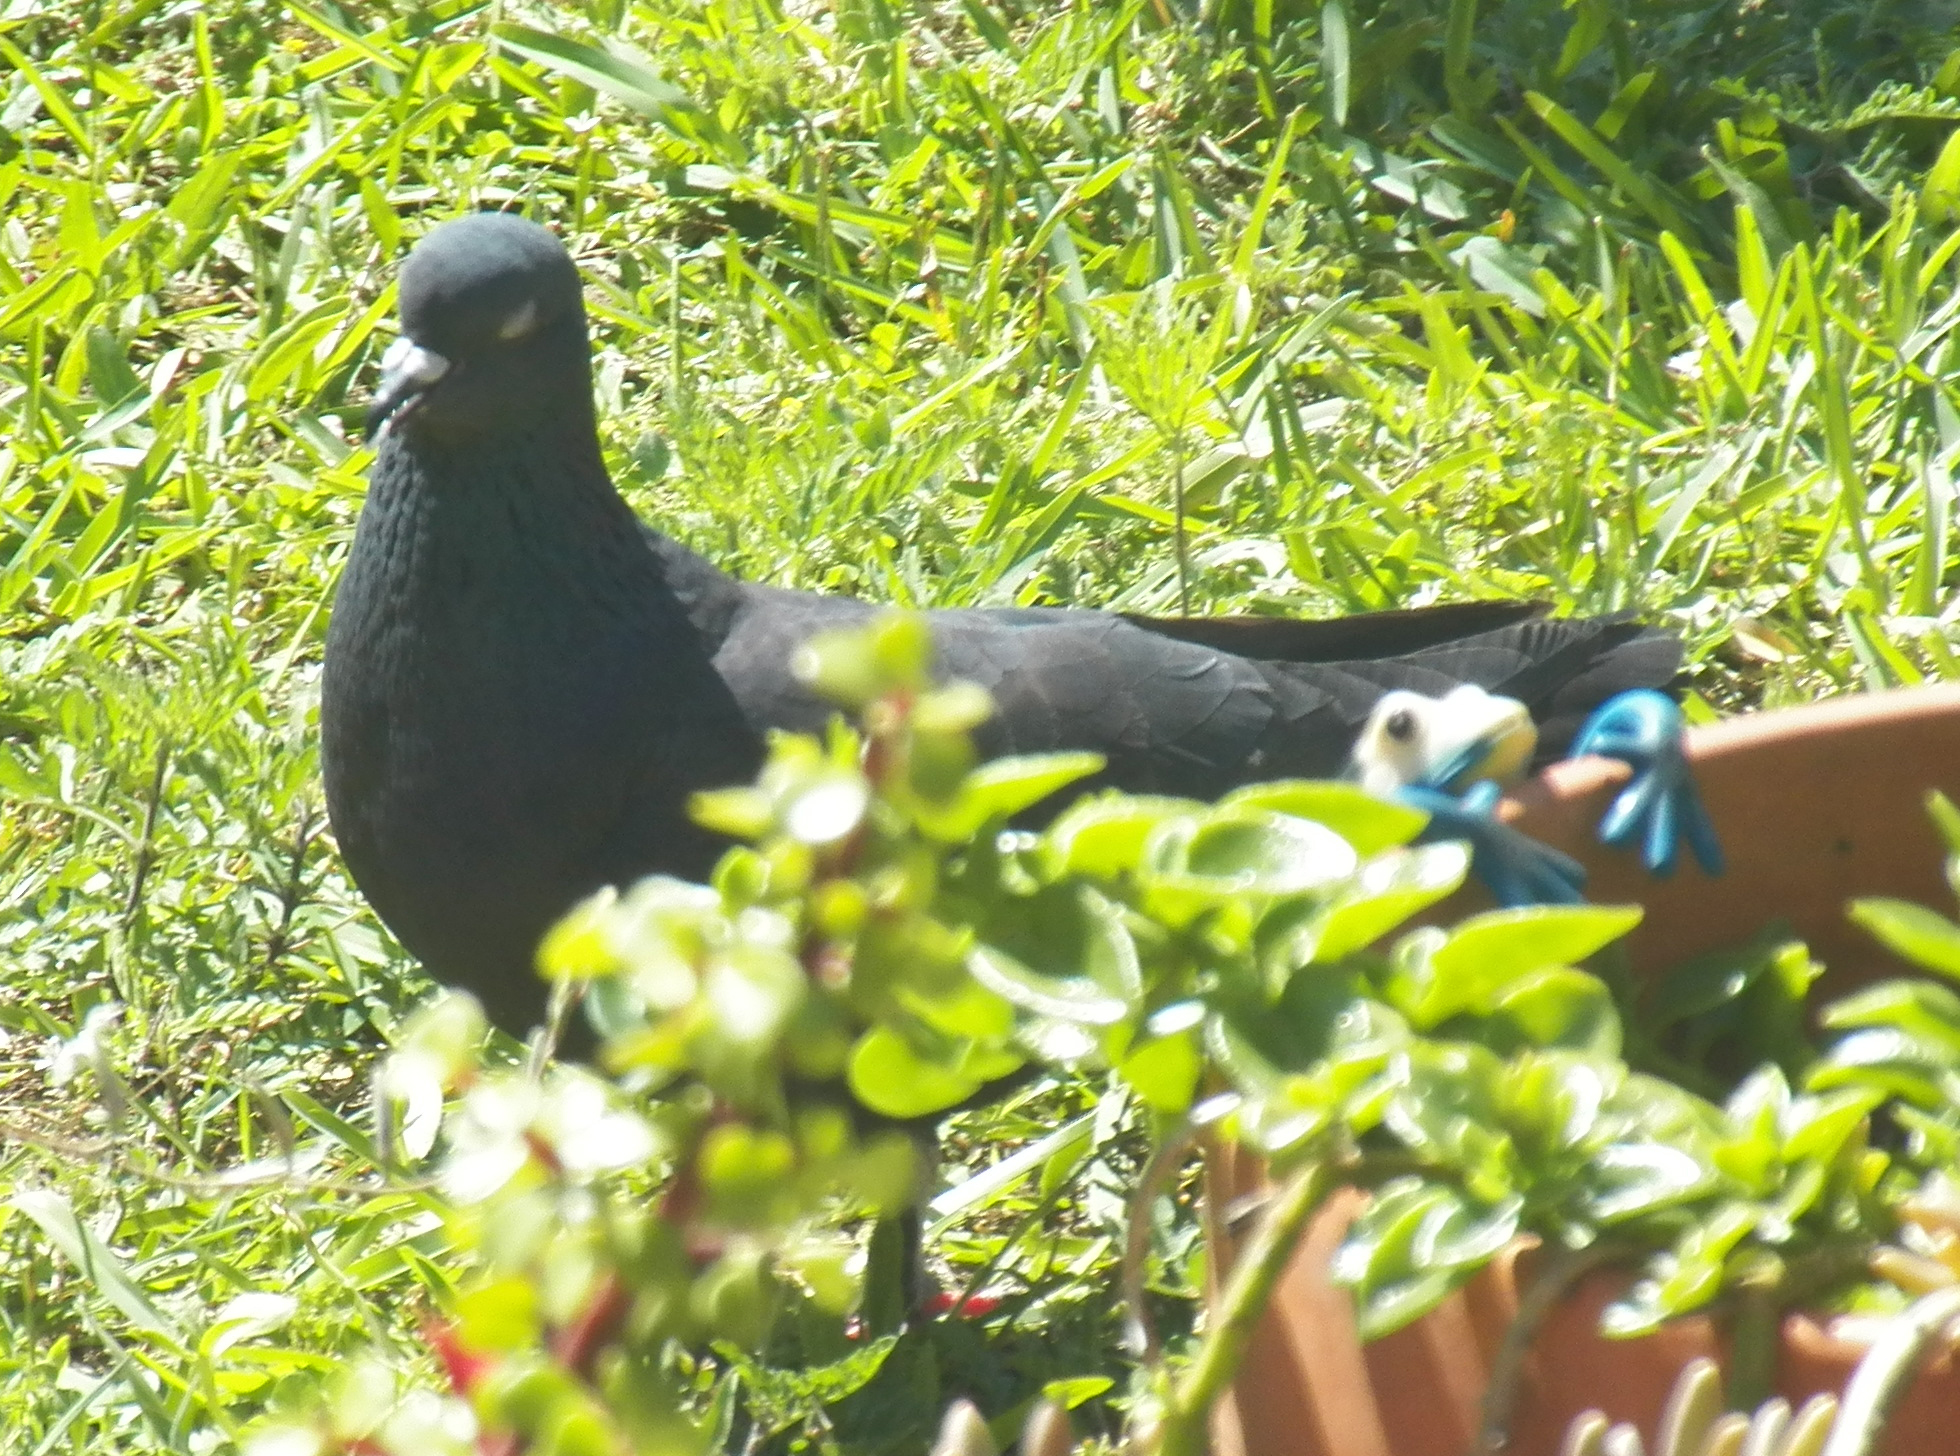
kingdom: Animalia
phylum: Chordata
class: Aves
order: Columbiformes
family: Columbidae
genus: Columba
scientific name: Columba livia
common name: Rock pigeon
